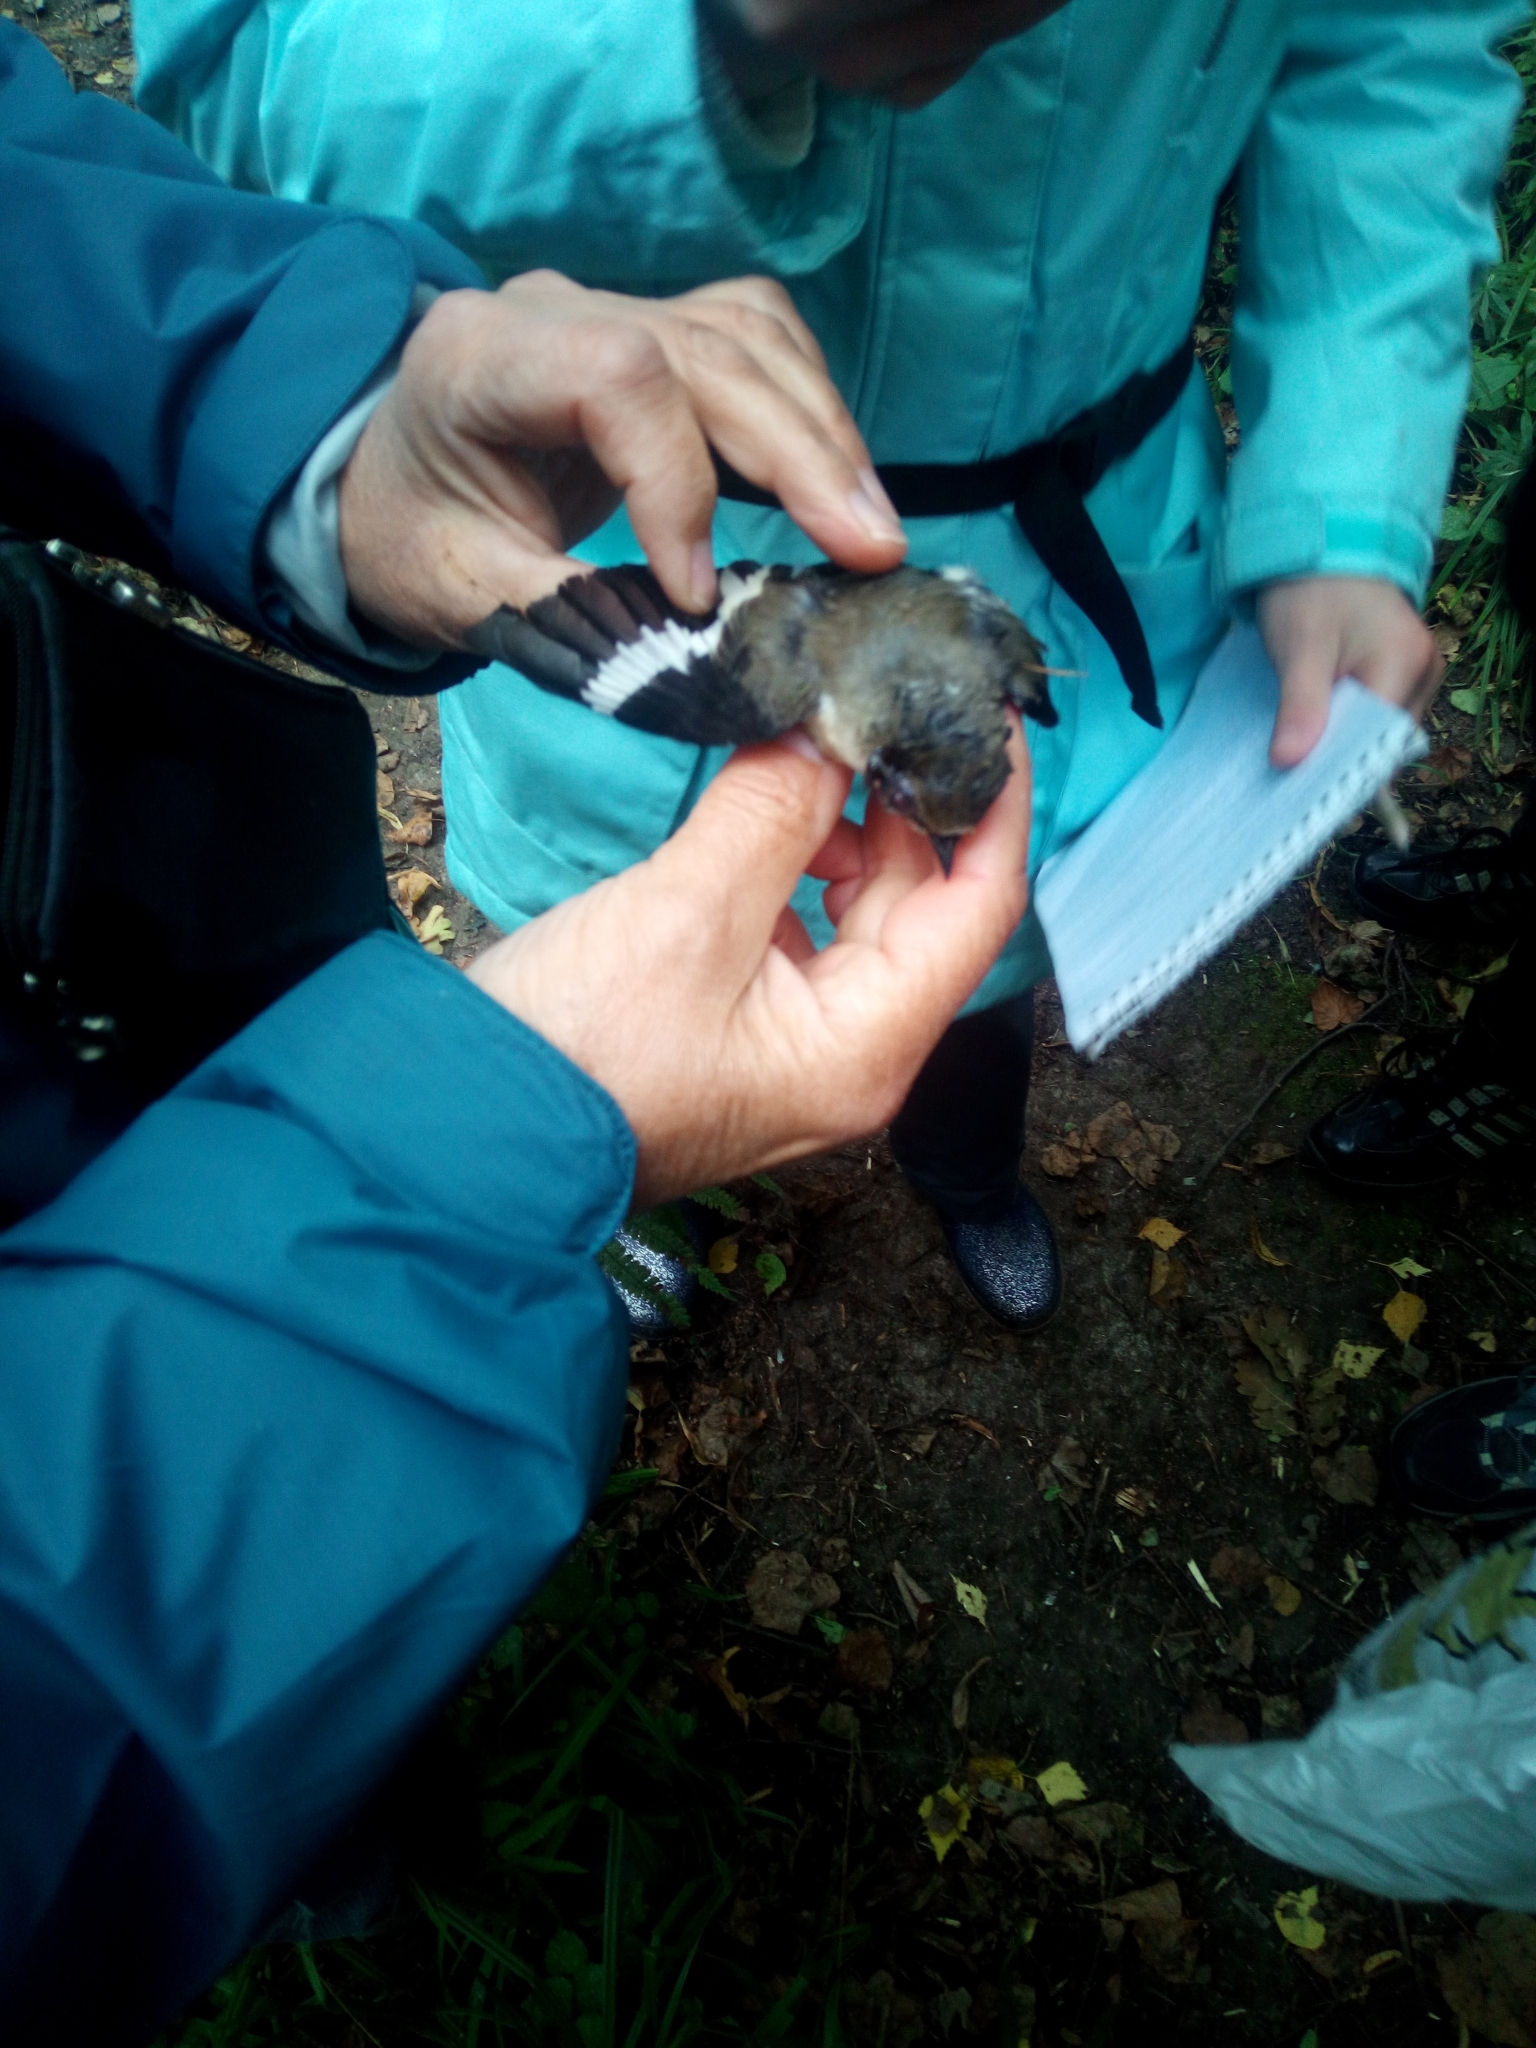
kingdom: Animalia
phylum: Chordata
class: Aves
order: Passeriformes
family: Muscicapidae
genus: Ficedula
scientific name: Ficedula albicollis
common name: Collared flycatcher
